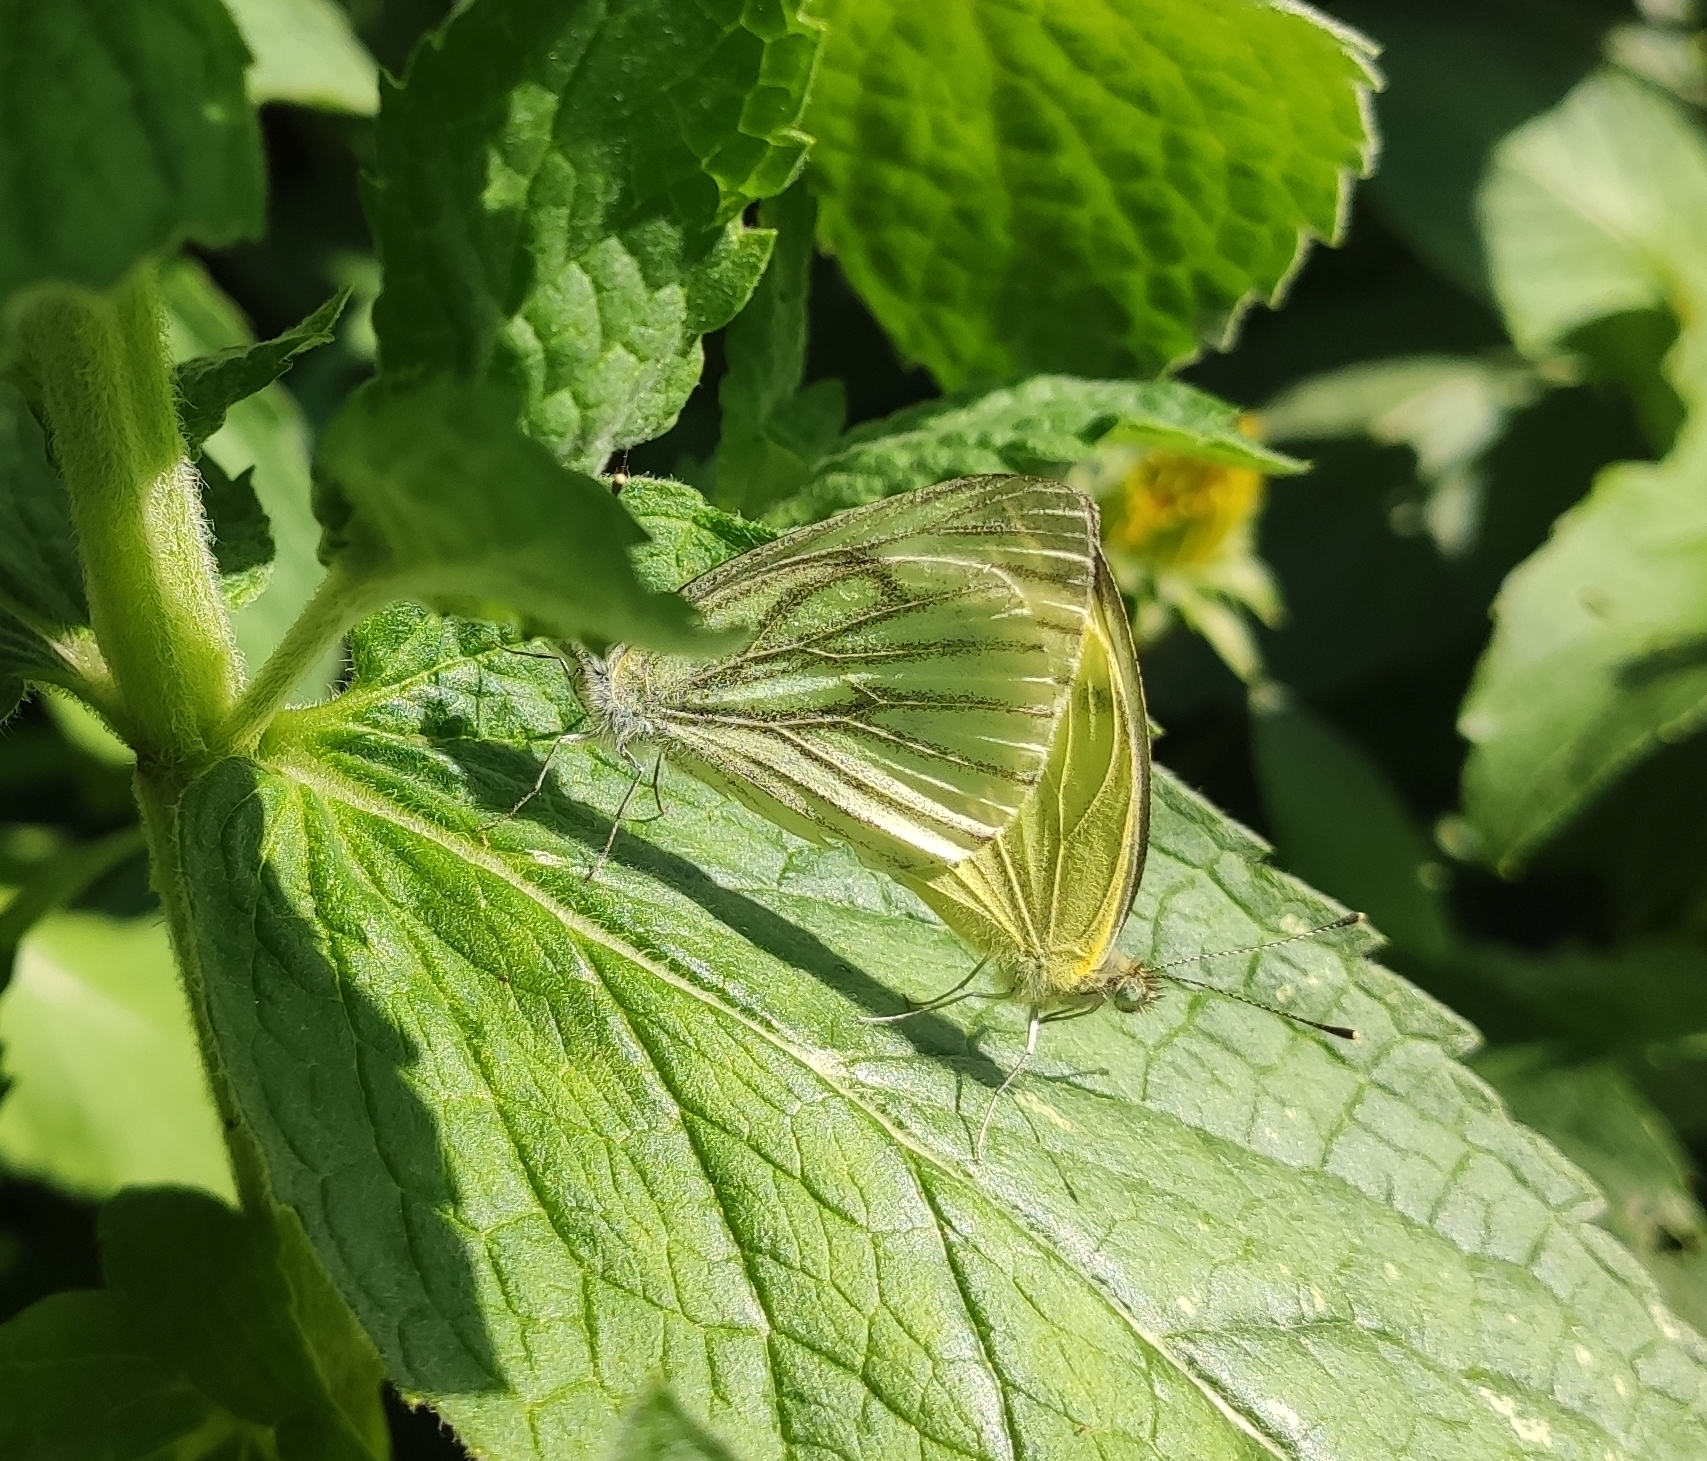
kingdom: Animalia
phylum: Arthropoda
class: Insecta
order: Lepidoptera
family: Pieridae
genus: Pieris
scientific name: Pieris napi
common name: Green-veined white
